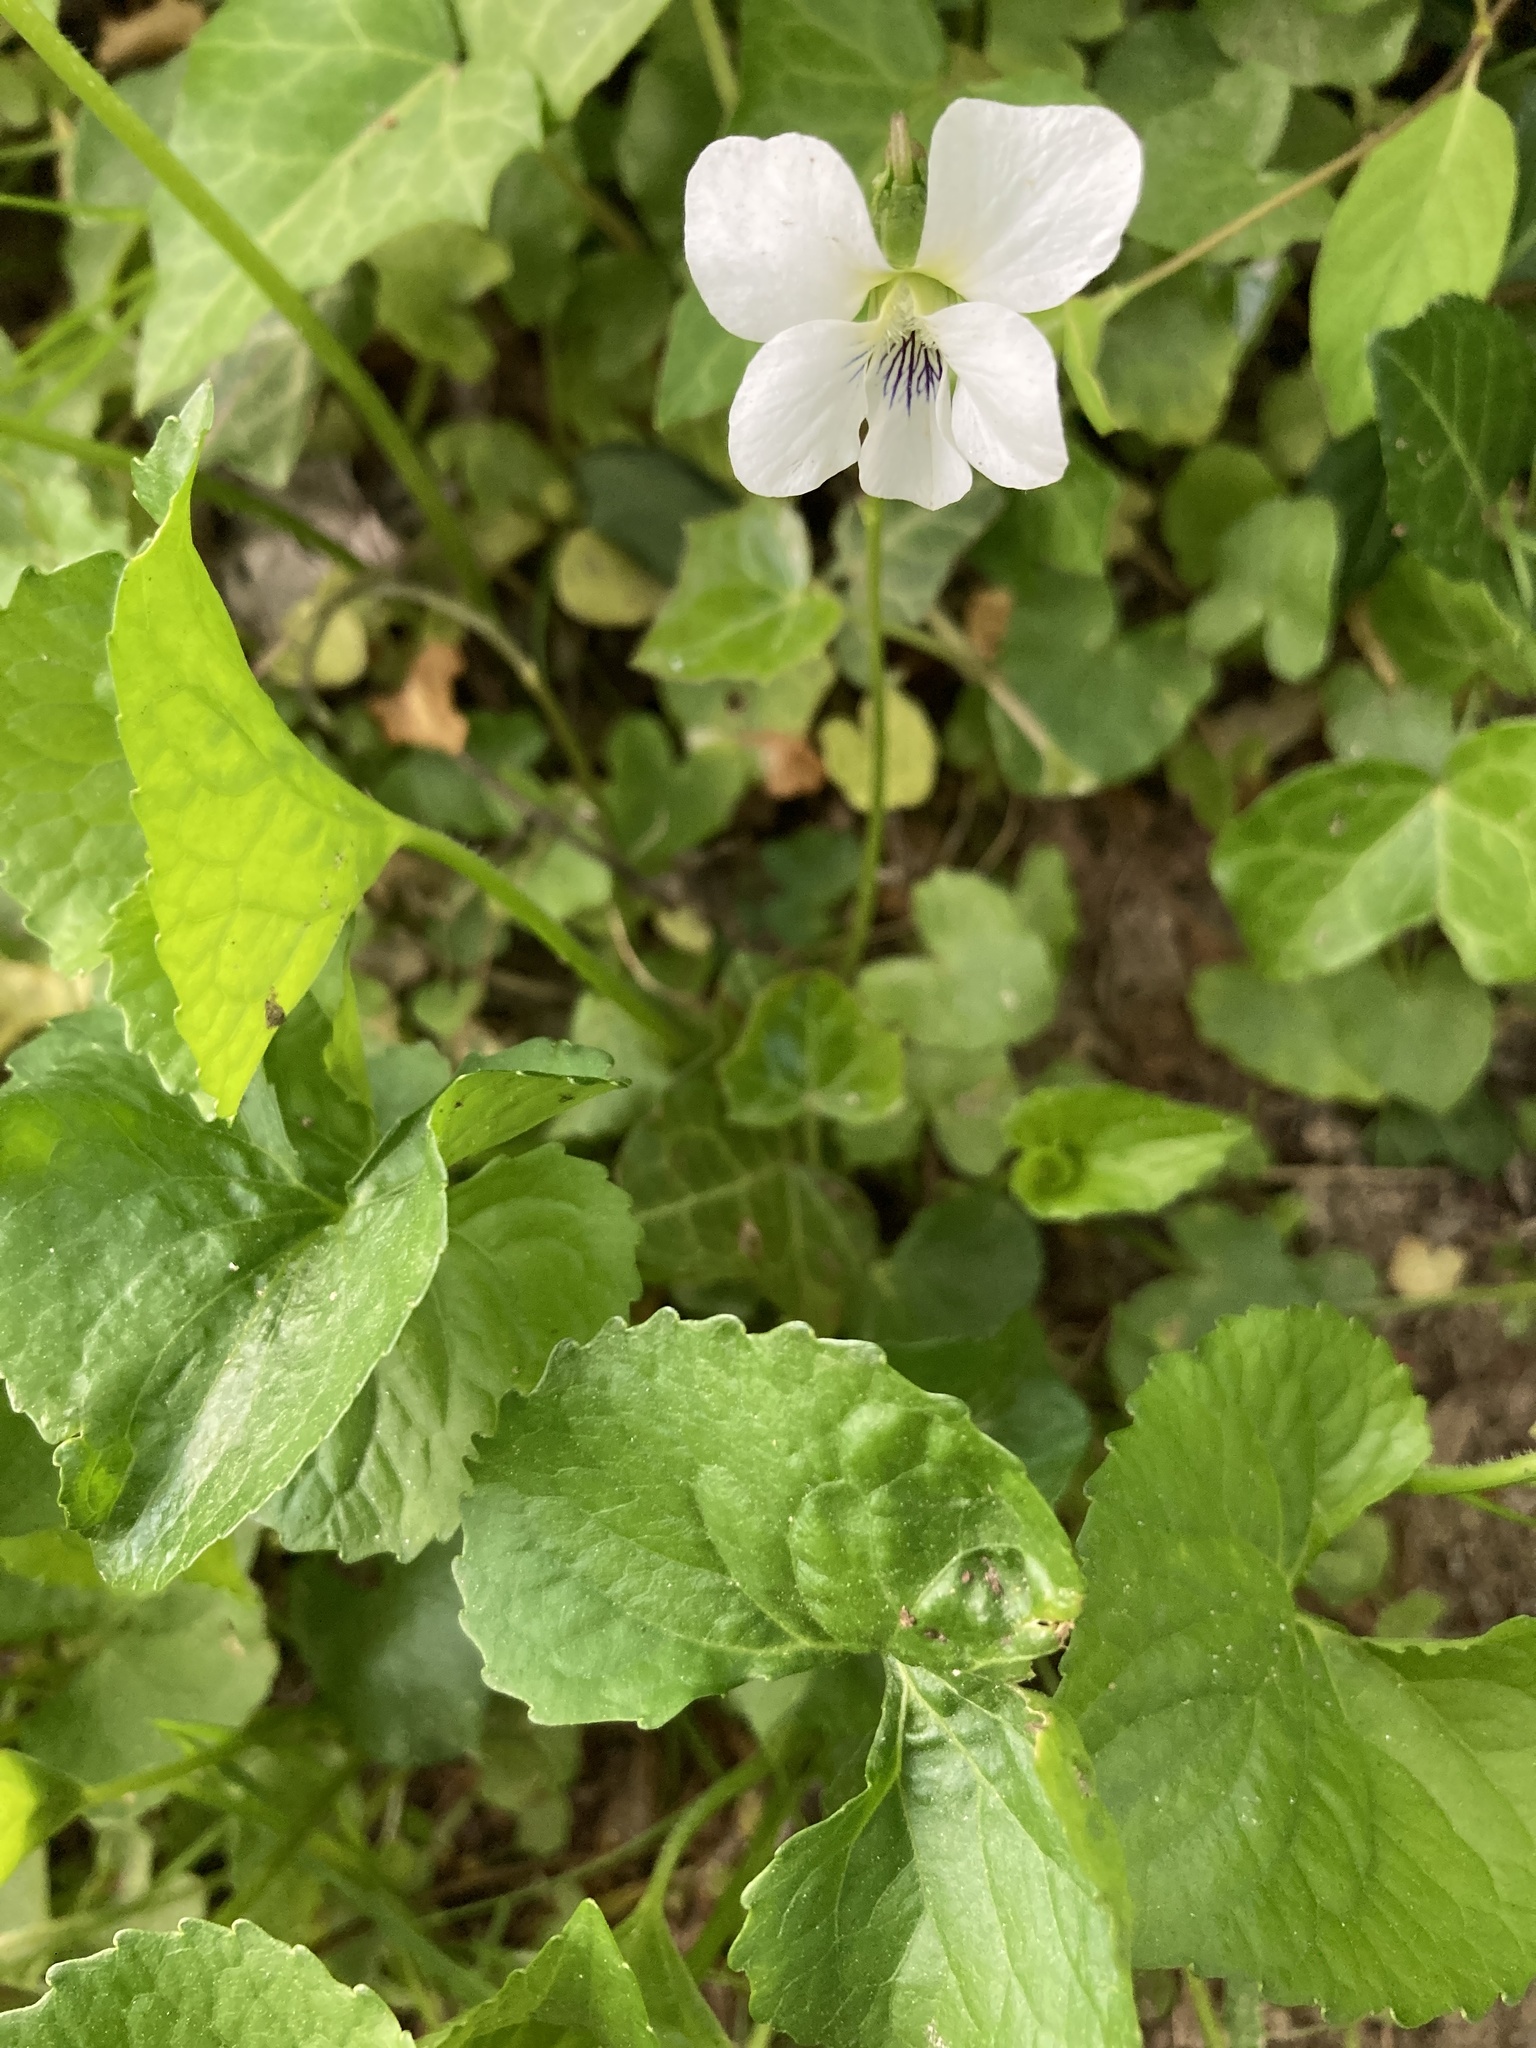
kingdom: Plantae
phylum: Tracheophyta
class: Magnoliopsida
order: Malpighiales
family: Violaceae
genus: Viola
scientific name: Viola striata
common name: Cream violet
